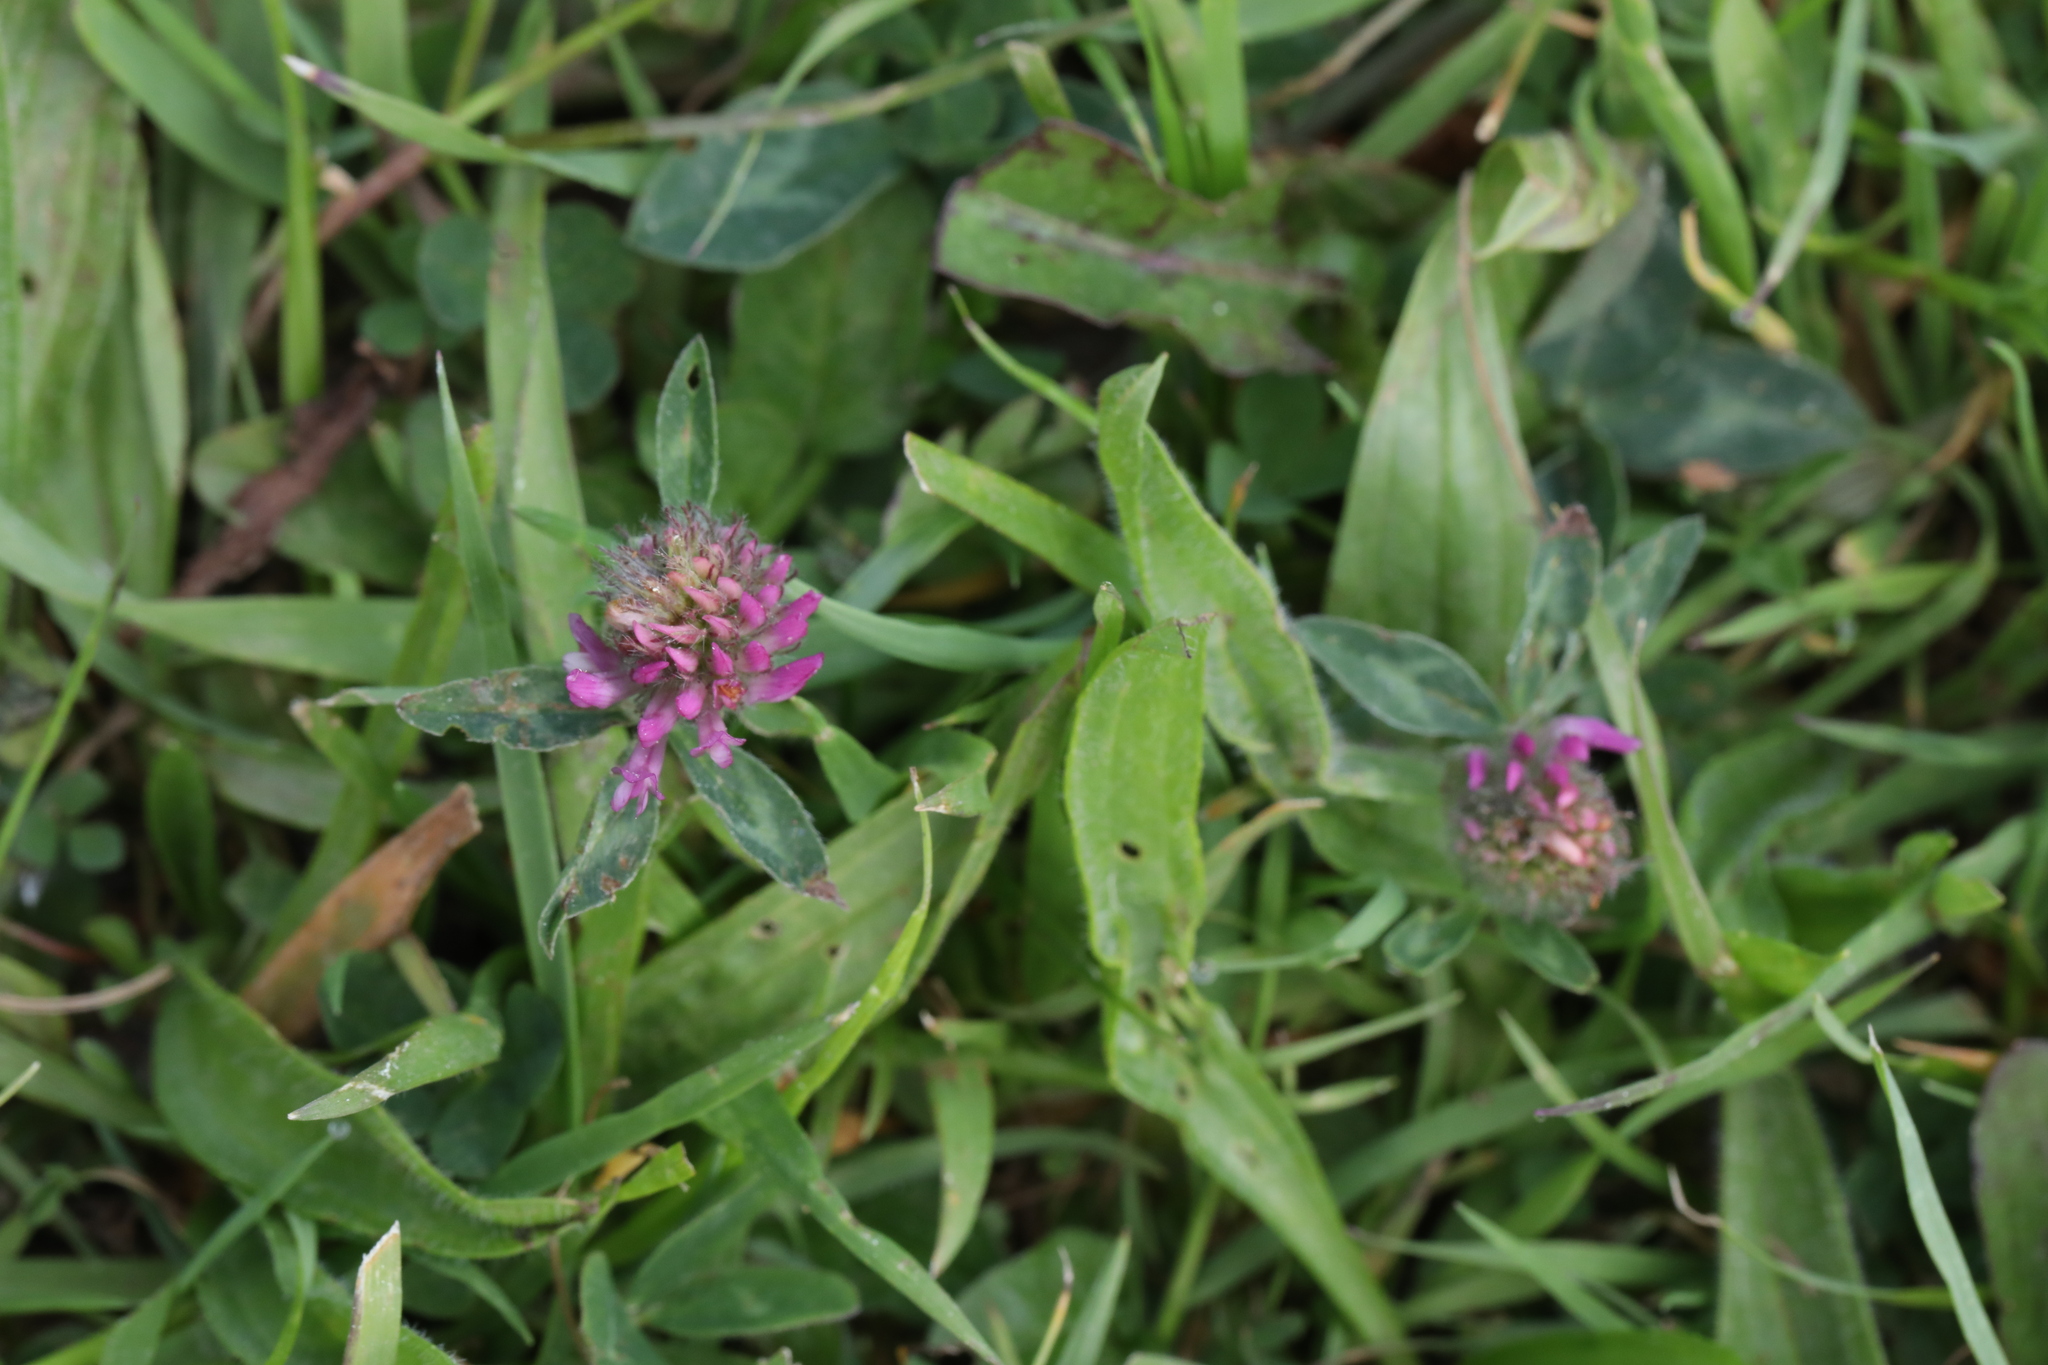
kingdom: Plantae
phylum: Tracheophyta
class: Magnoliopsida
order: Fabales
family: Fabaceae
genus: Trifolium
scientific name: Trifolium pratense
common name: Red clover
